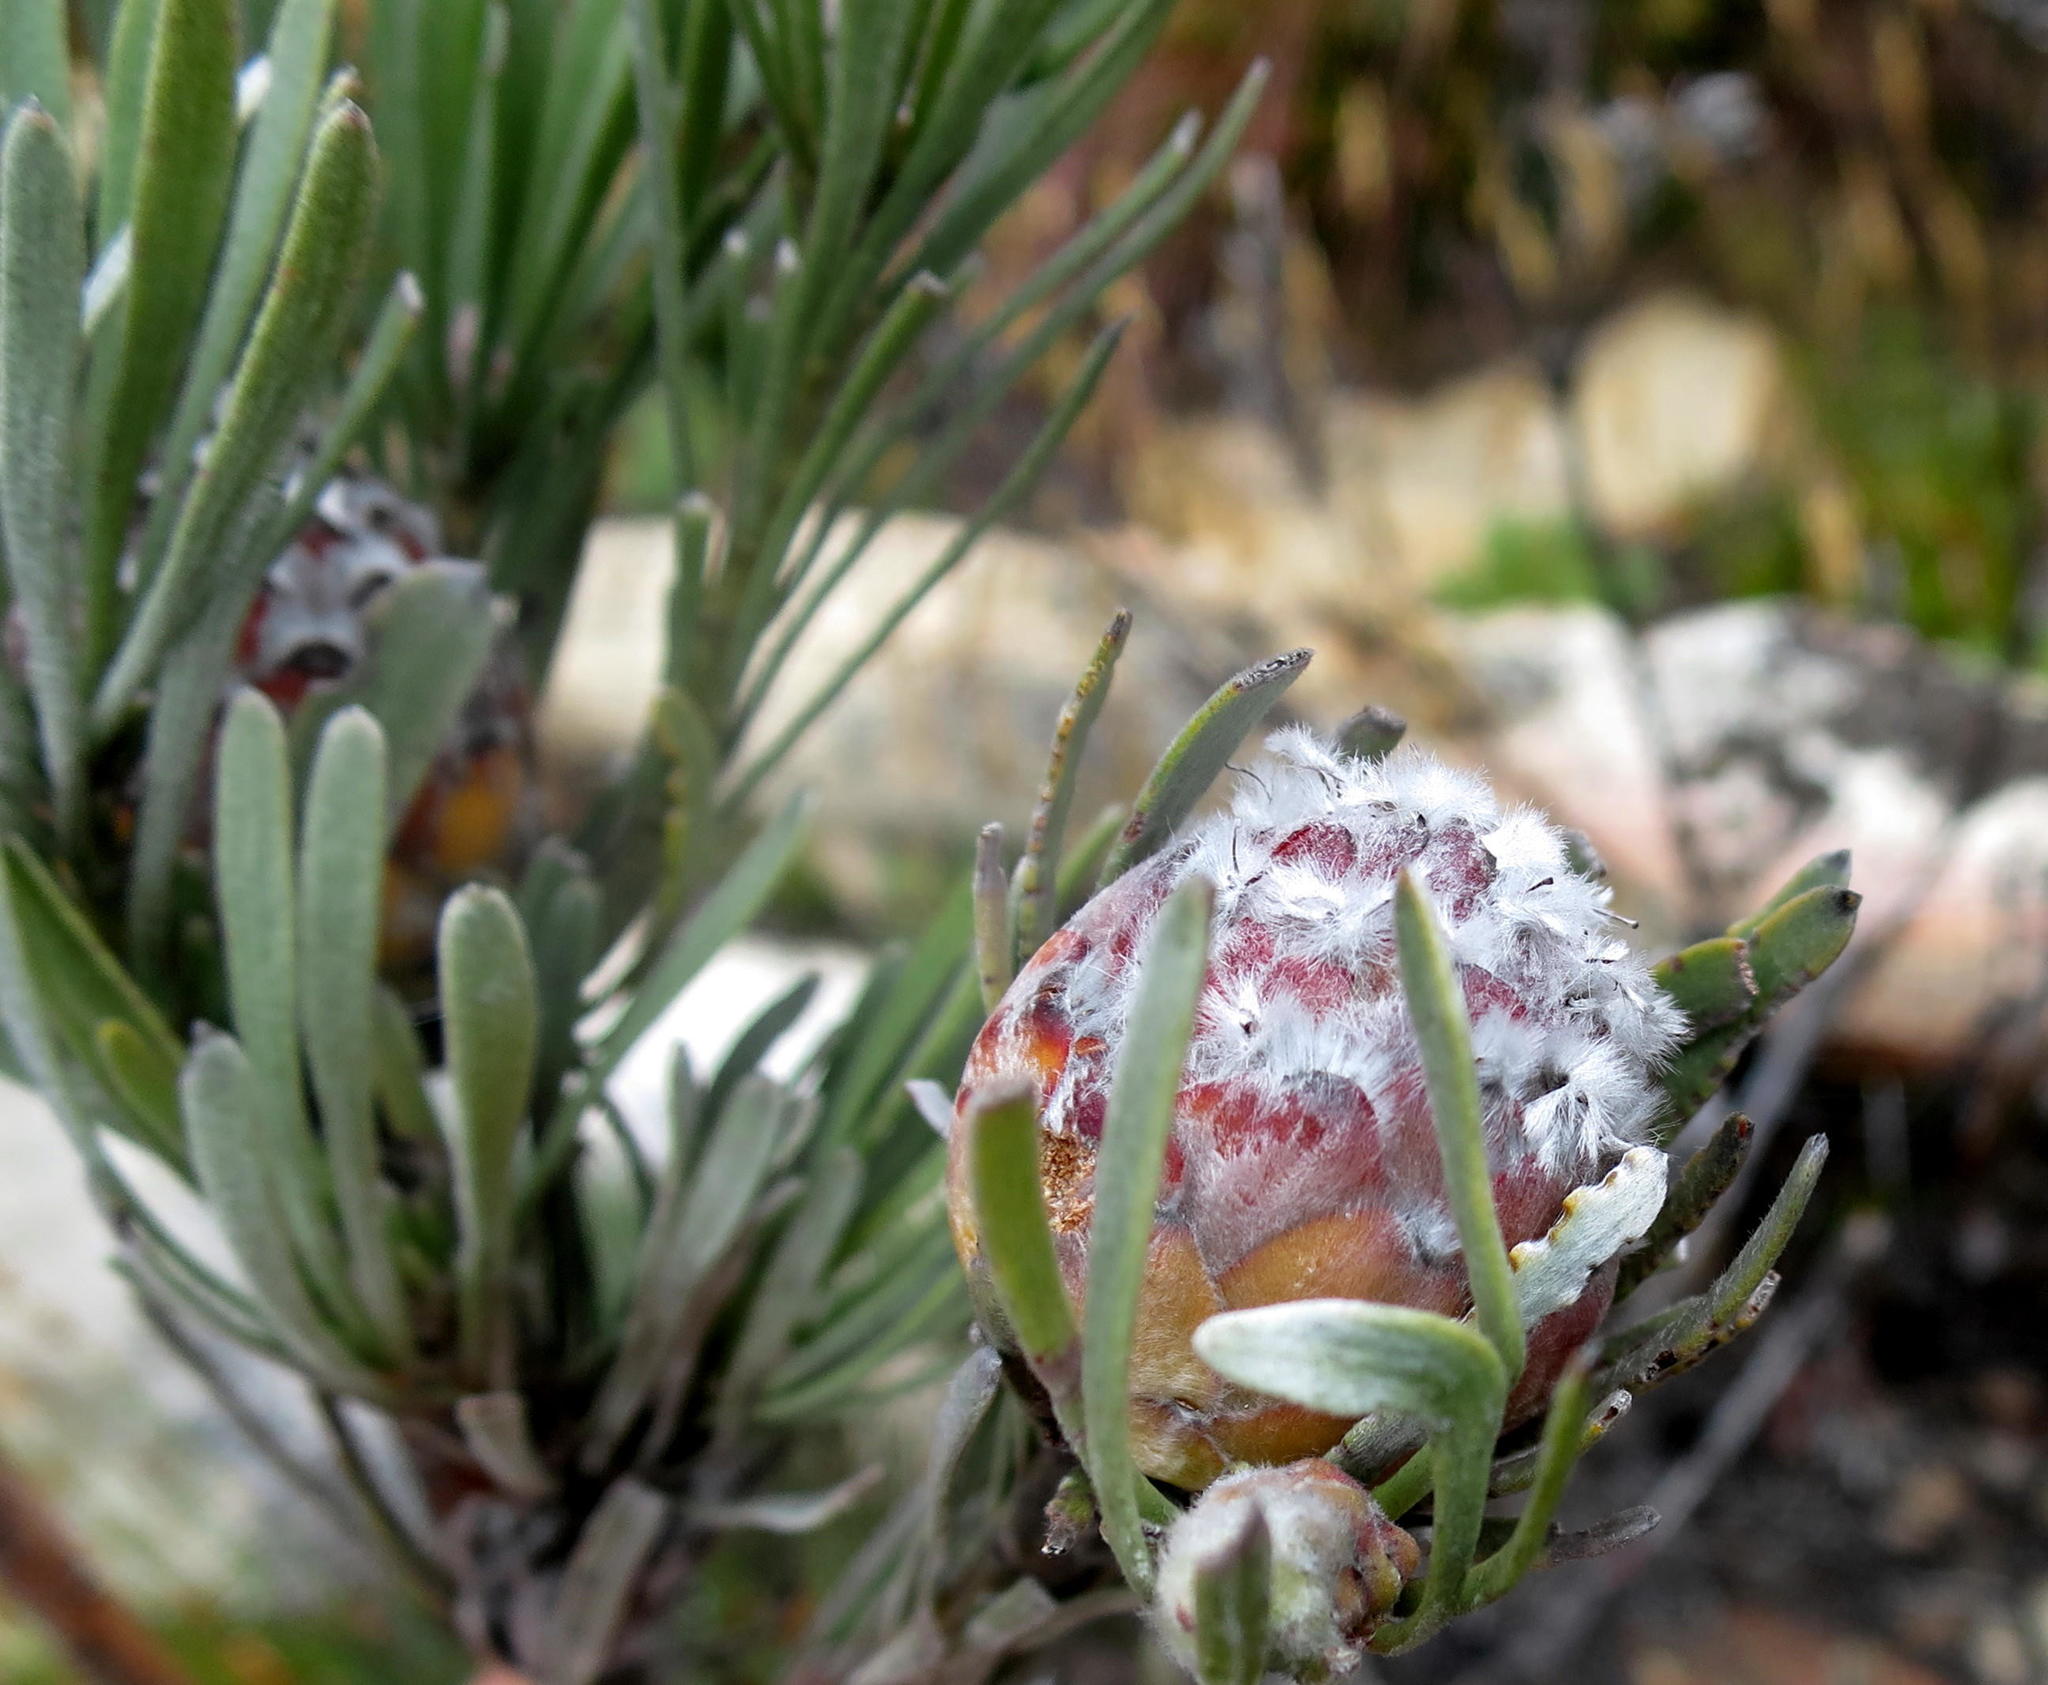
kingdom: Plantae
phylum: Tracheophyta
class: Magnoliopsida
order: Proteales
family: Proteaceae
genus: Leucadendron
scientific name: Leucadendron album
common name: Linear-leaf conebush
